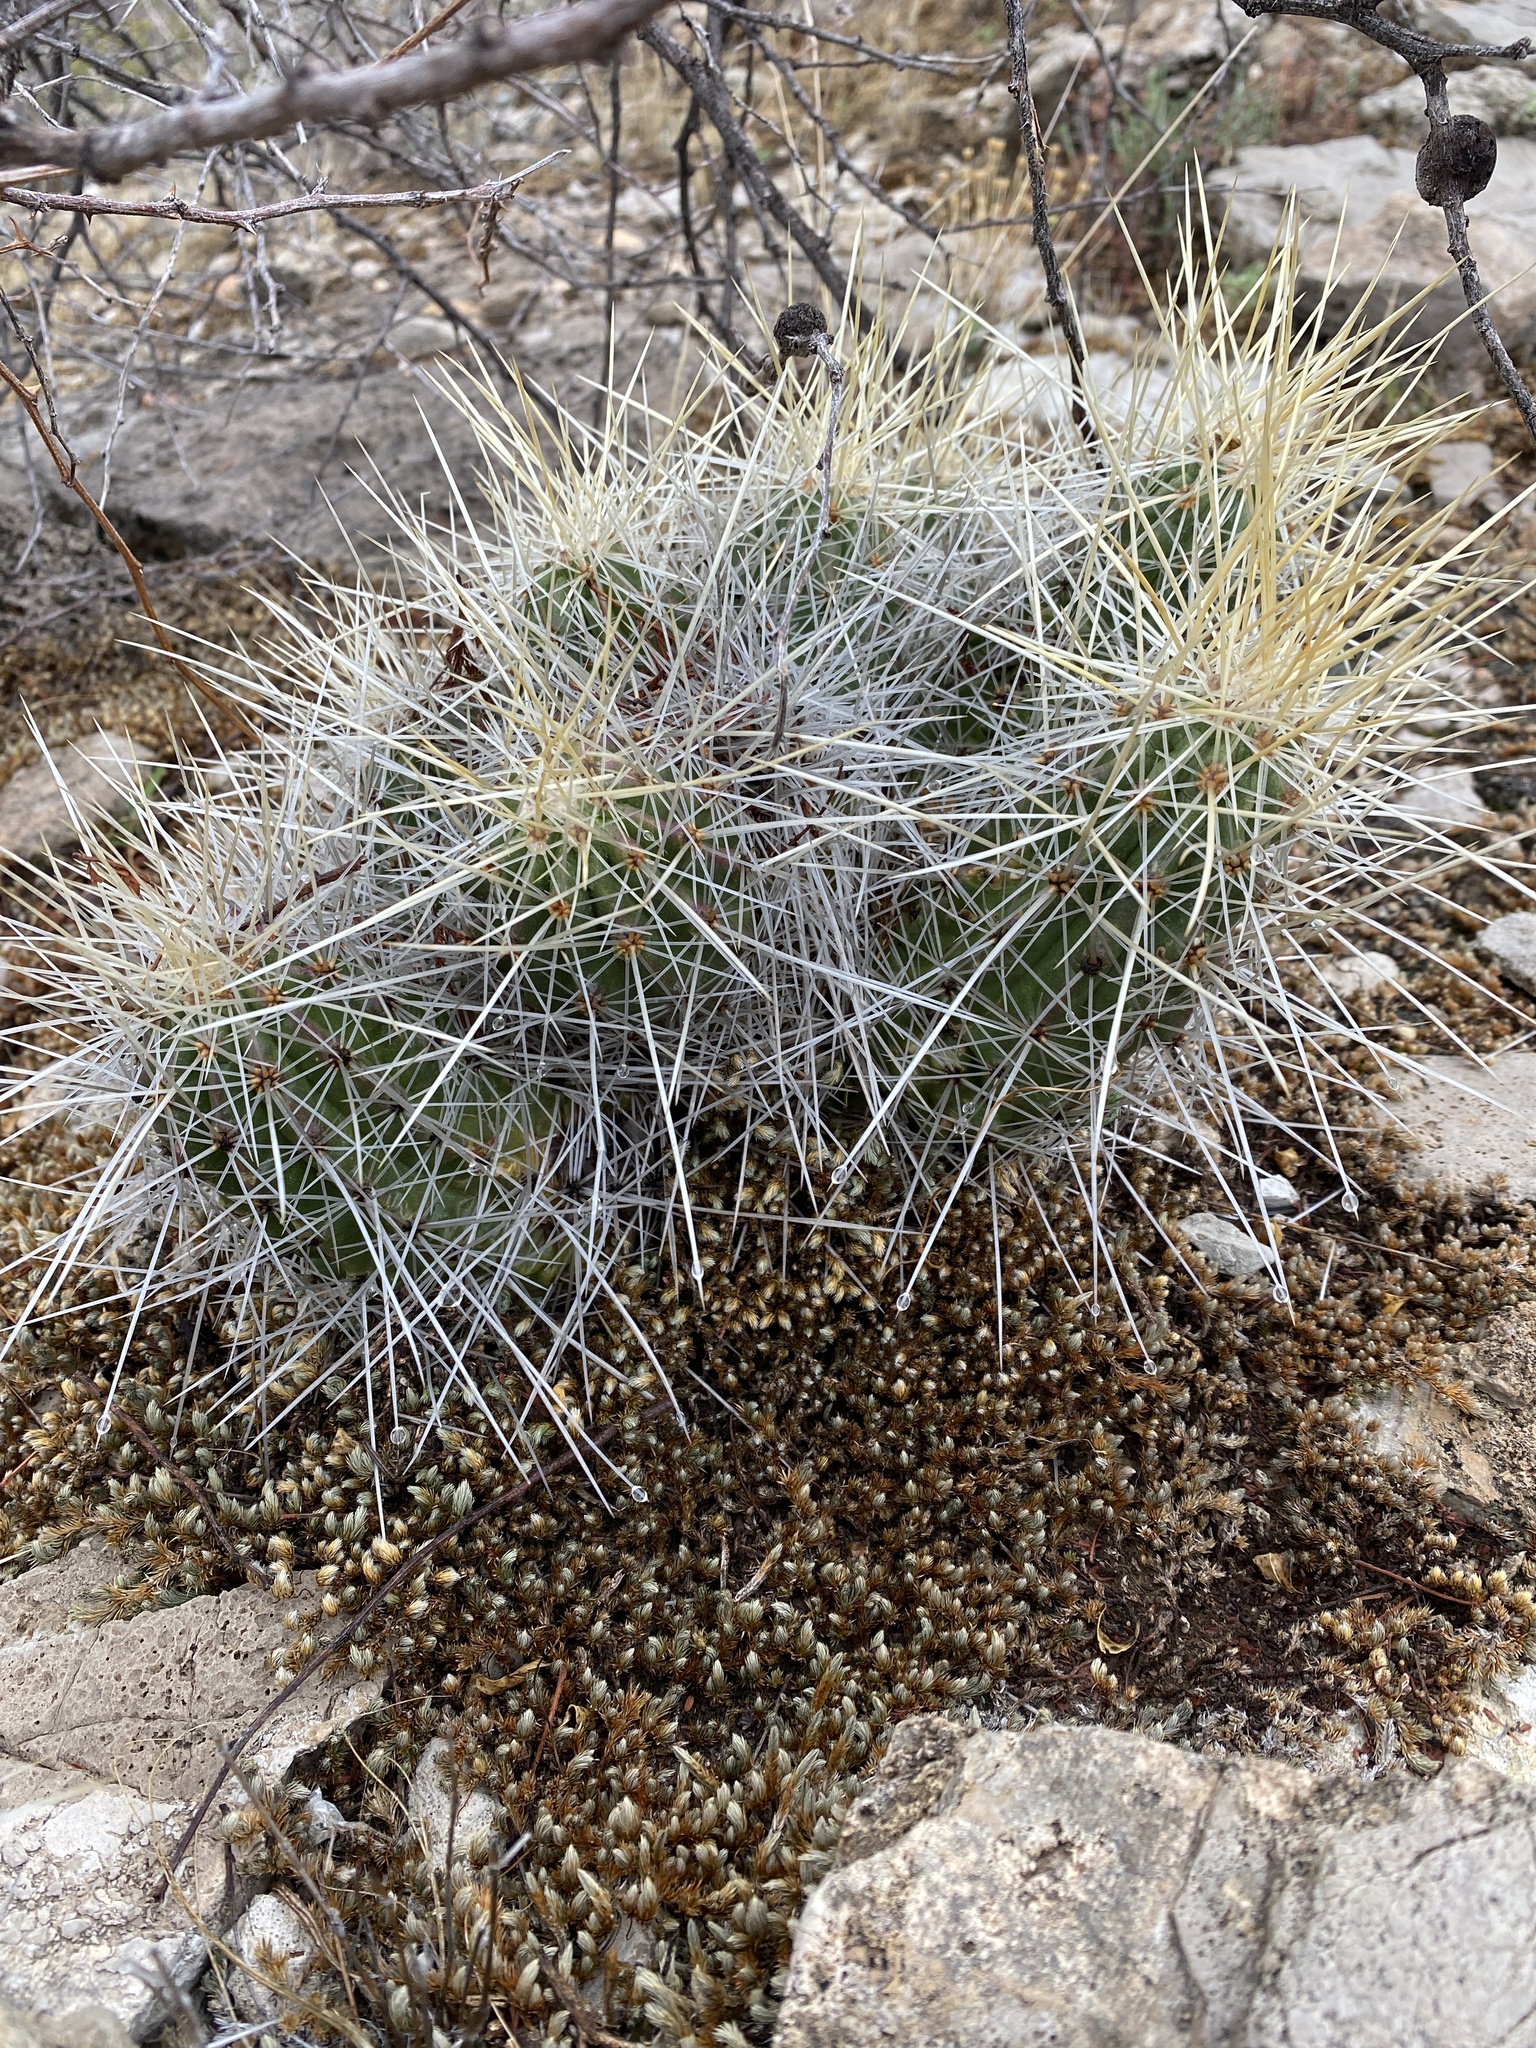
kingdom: Plantae
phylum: Tracheophyta
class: Magnoliopsida
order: Caryophyllales
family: Cactaceae
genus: Echinocereus
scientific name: Echinocereus stramineus
